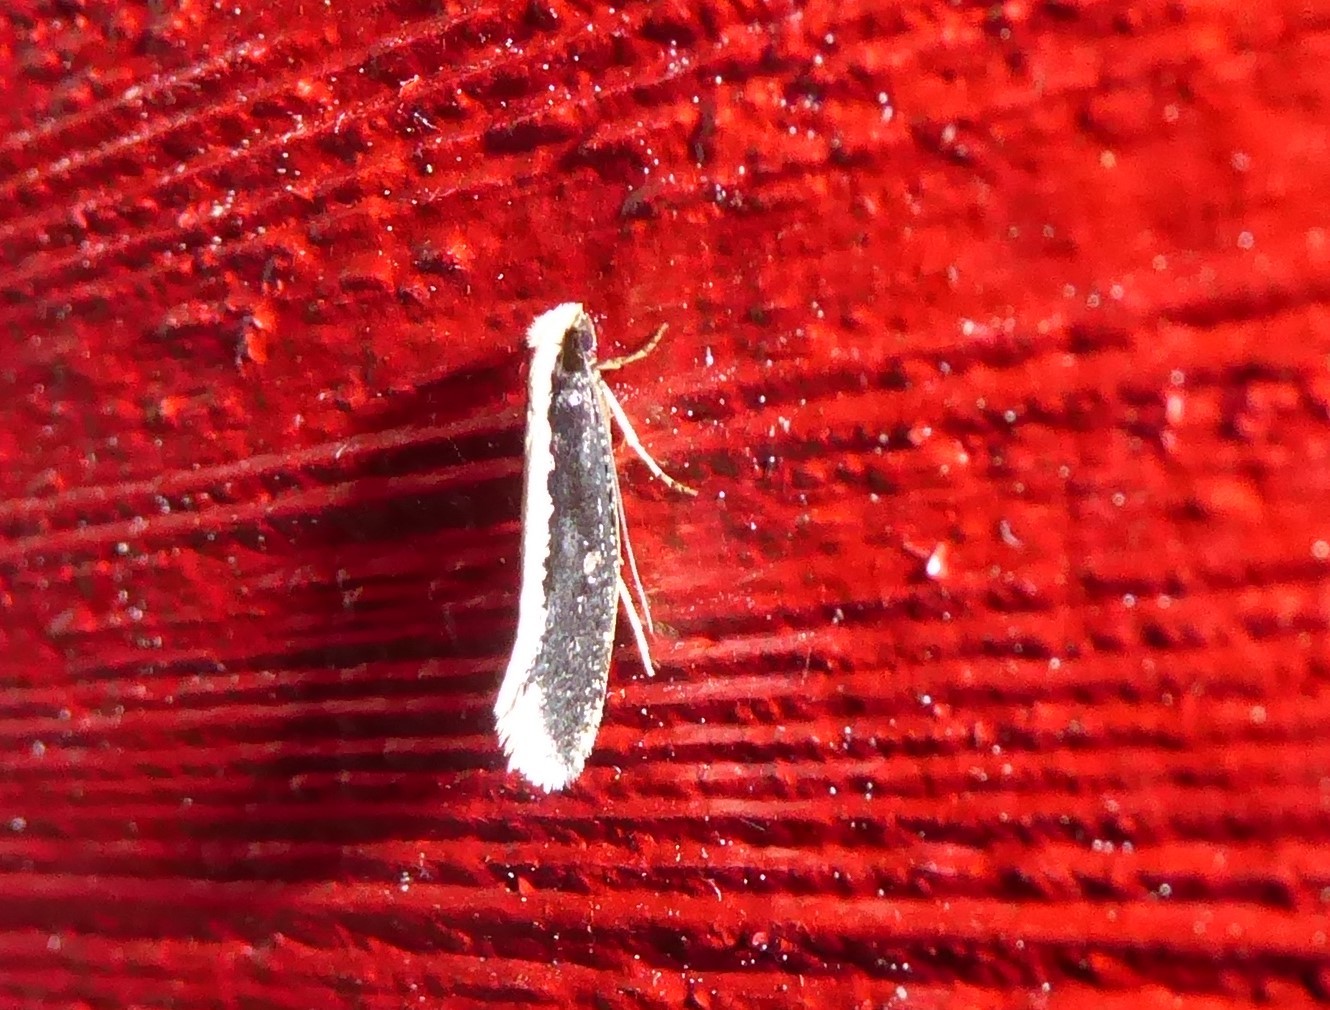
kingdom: Animalia
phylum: Arthropoda
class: Insecta
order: Lepidoptera
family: Tineidae
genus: Monopis
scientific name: Monopis ethelella
